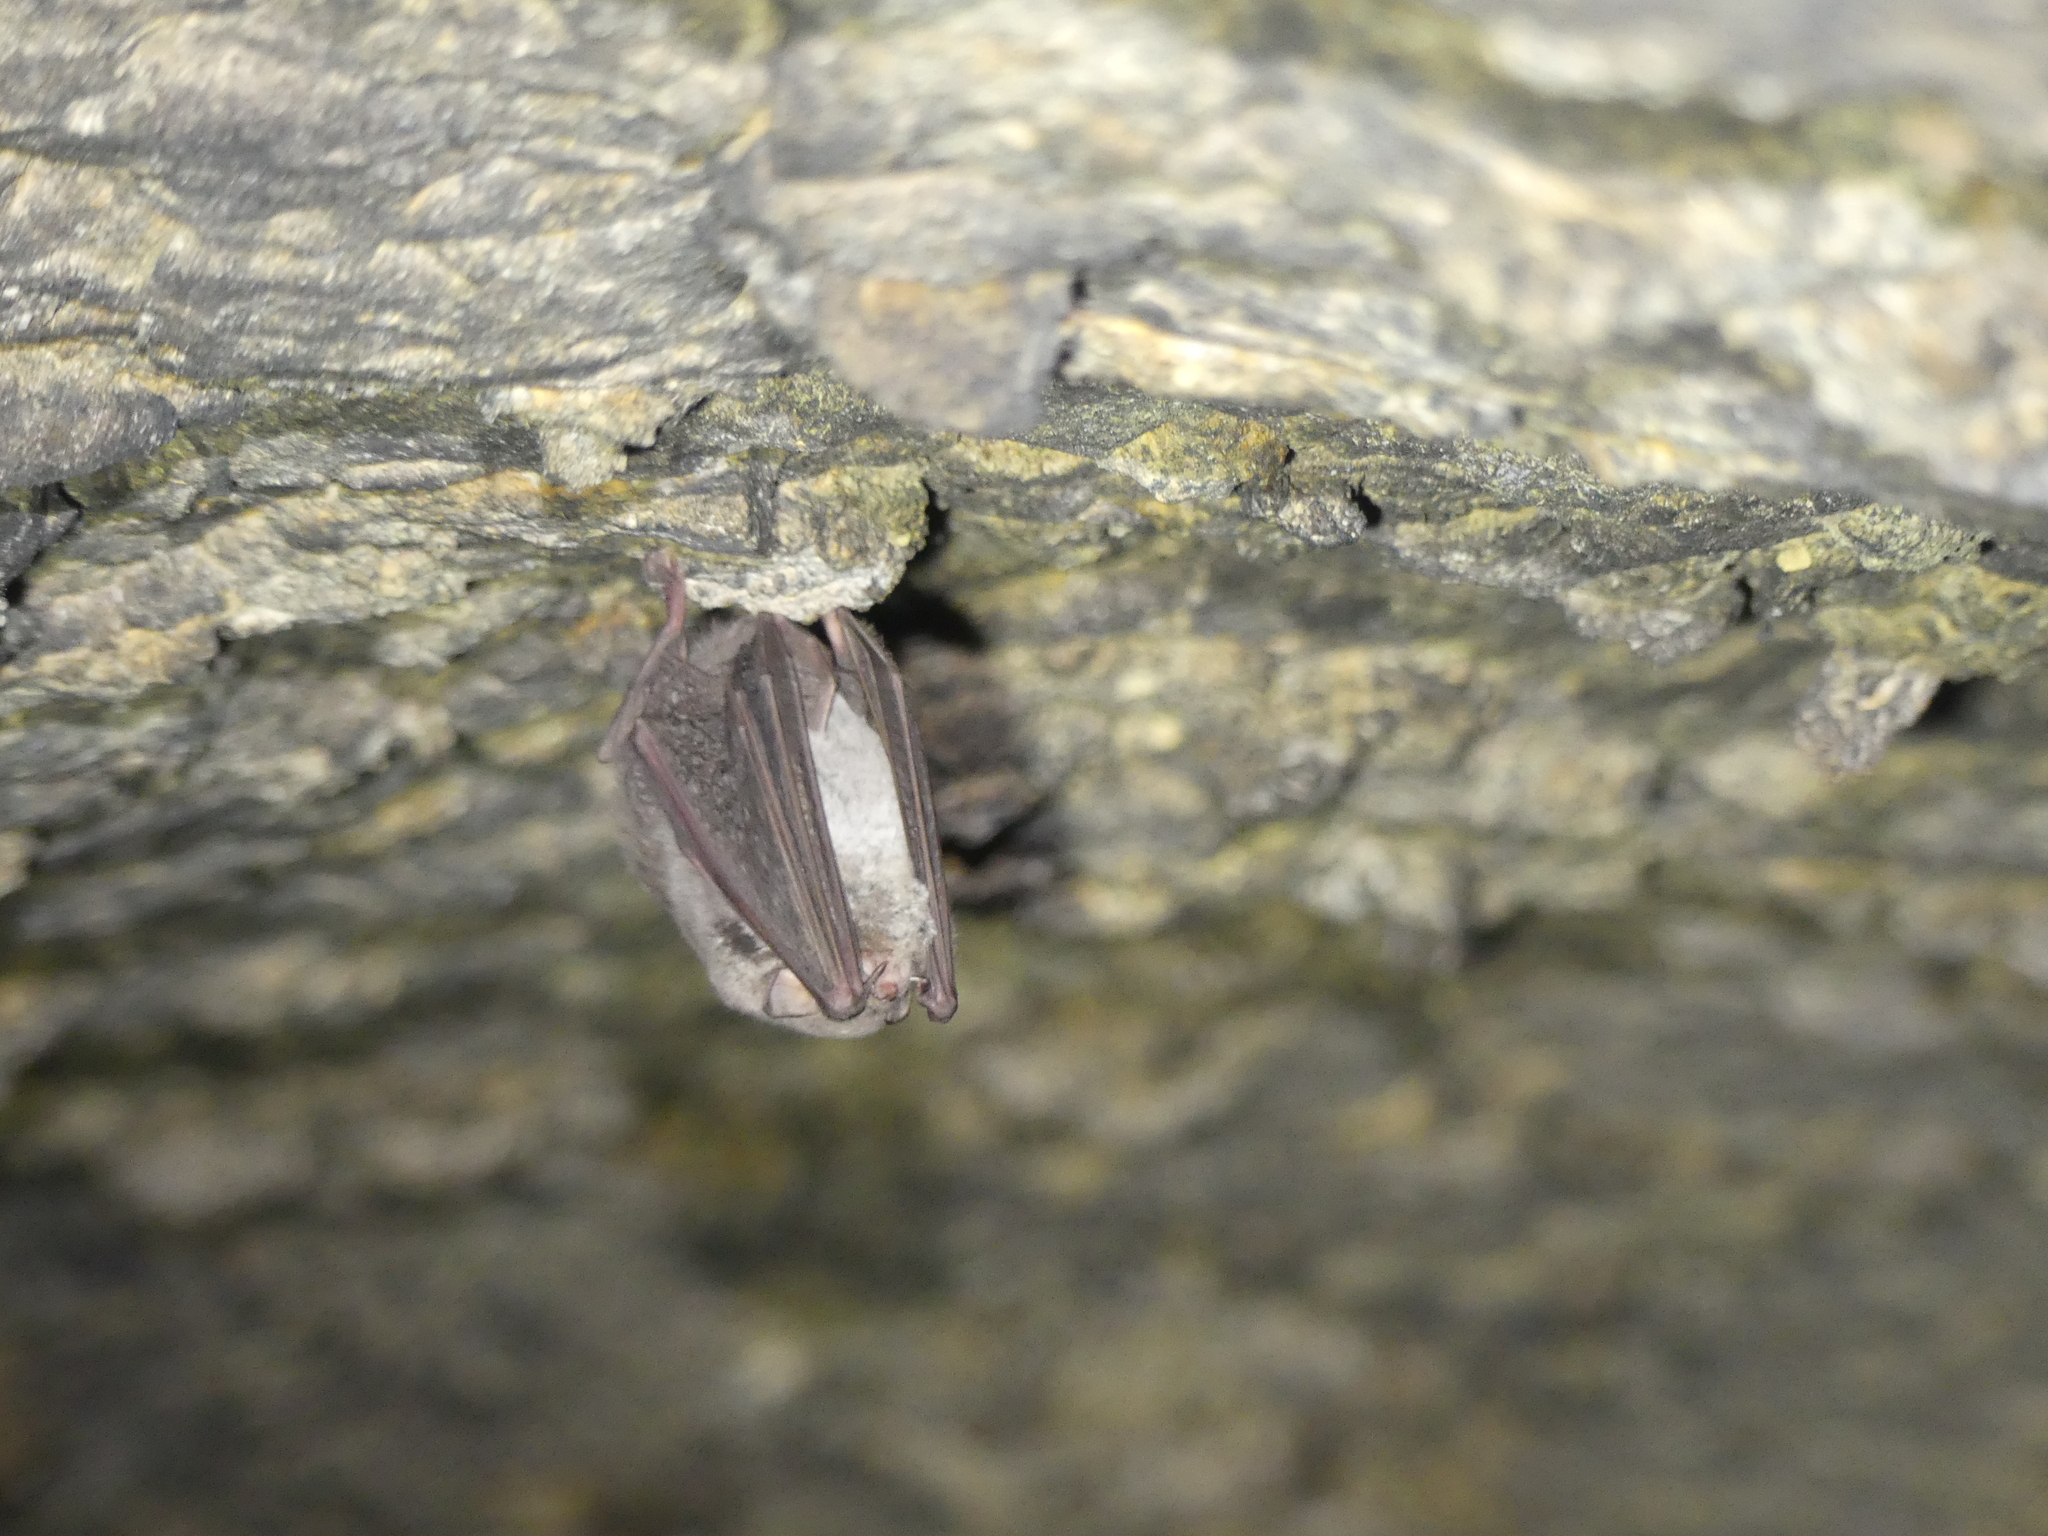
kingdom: Animalia
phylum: Chordata
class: Mammalia
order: Chiroptera
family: Miniopteridae
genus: Miniopterus
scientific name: Miniopterus schreibersii
